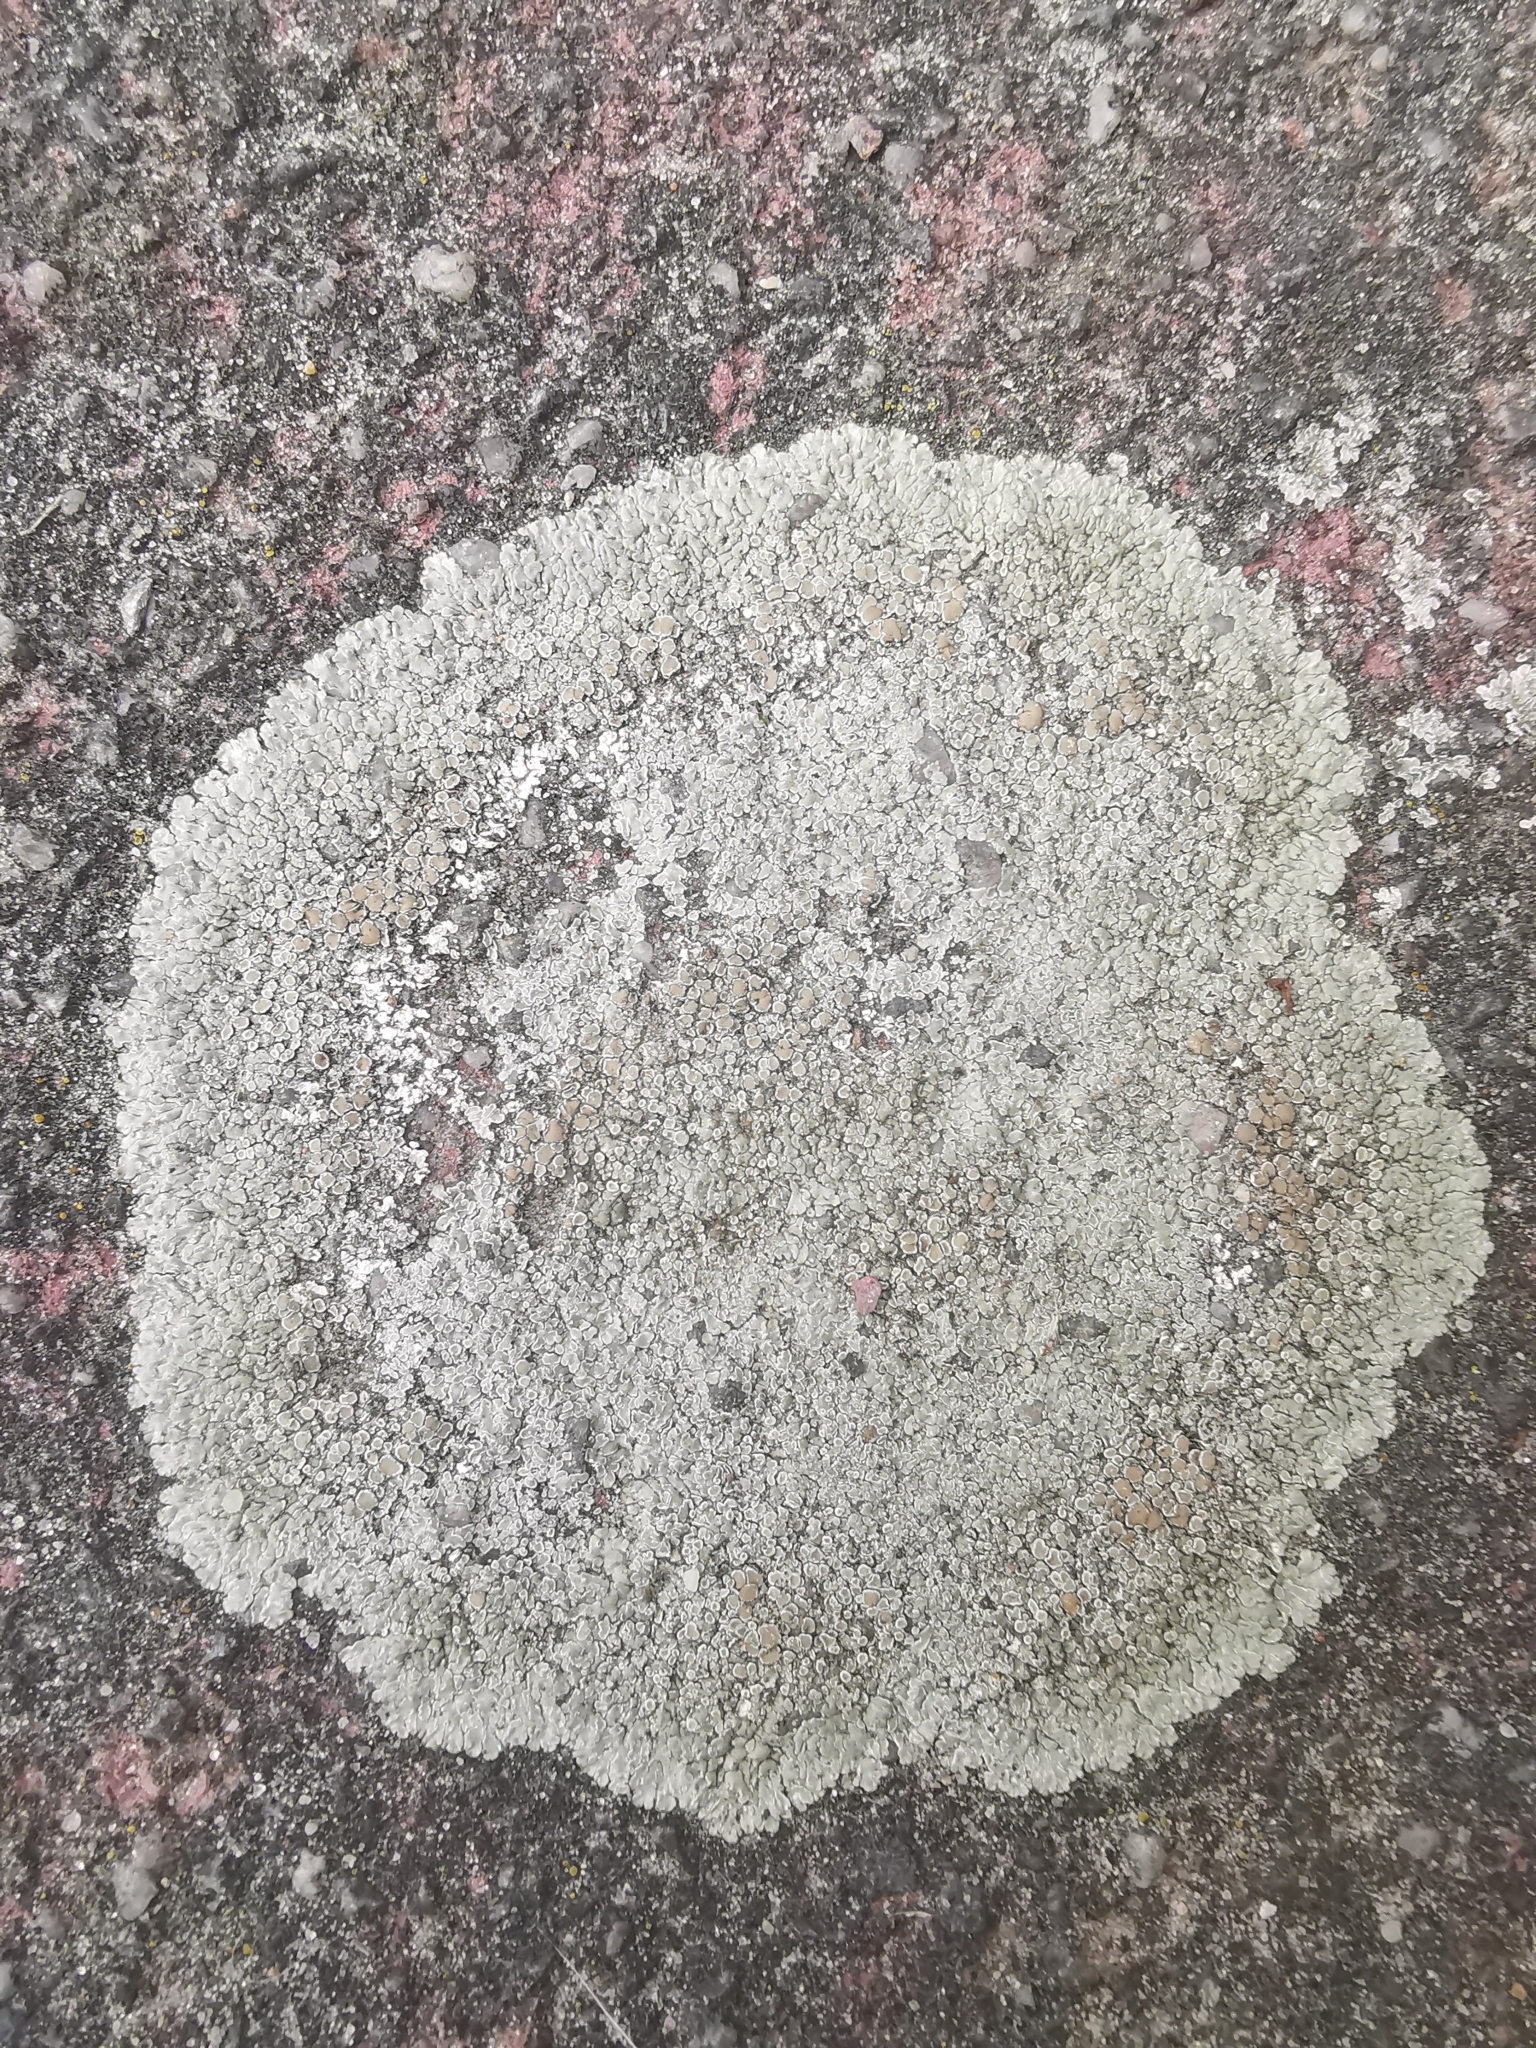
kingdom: Fungi
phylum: Ascomycota
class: Lecanoromycetes
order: Lecanorales
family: Lecanoraceae
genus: Protoparmeliopsis
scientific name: Protoparmeliopsis muralis
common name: Stonewall rim lichen
